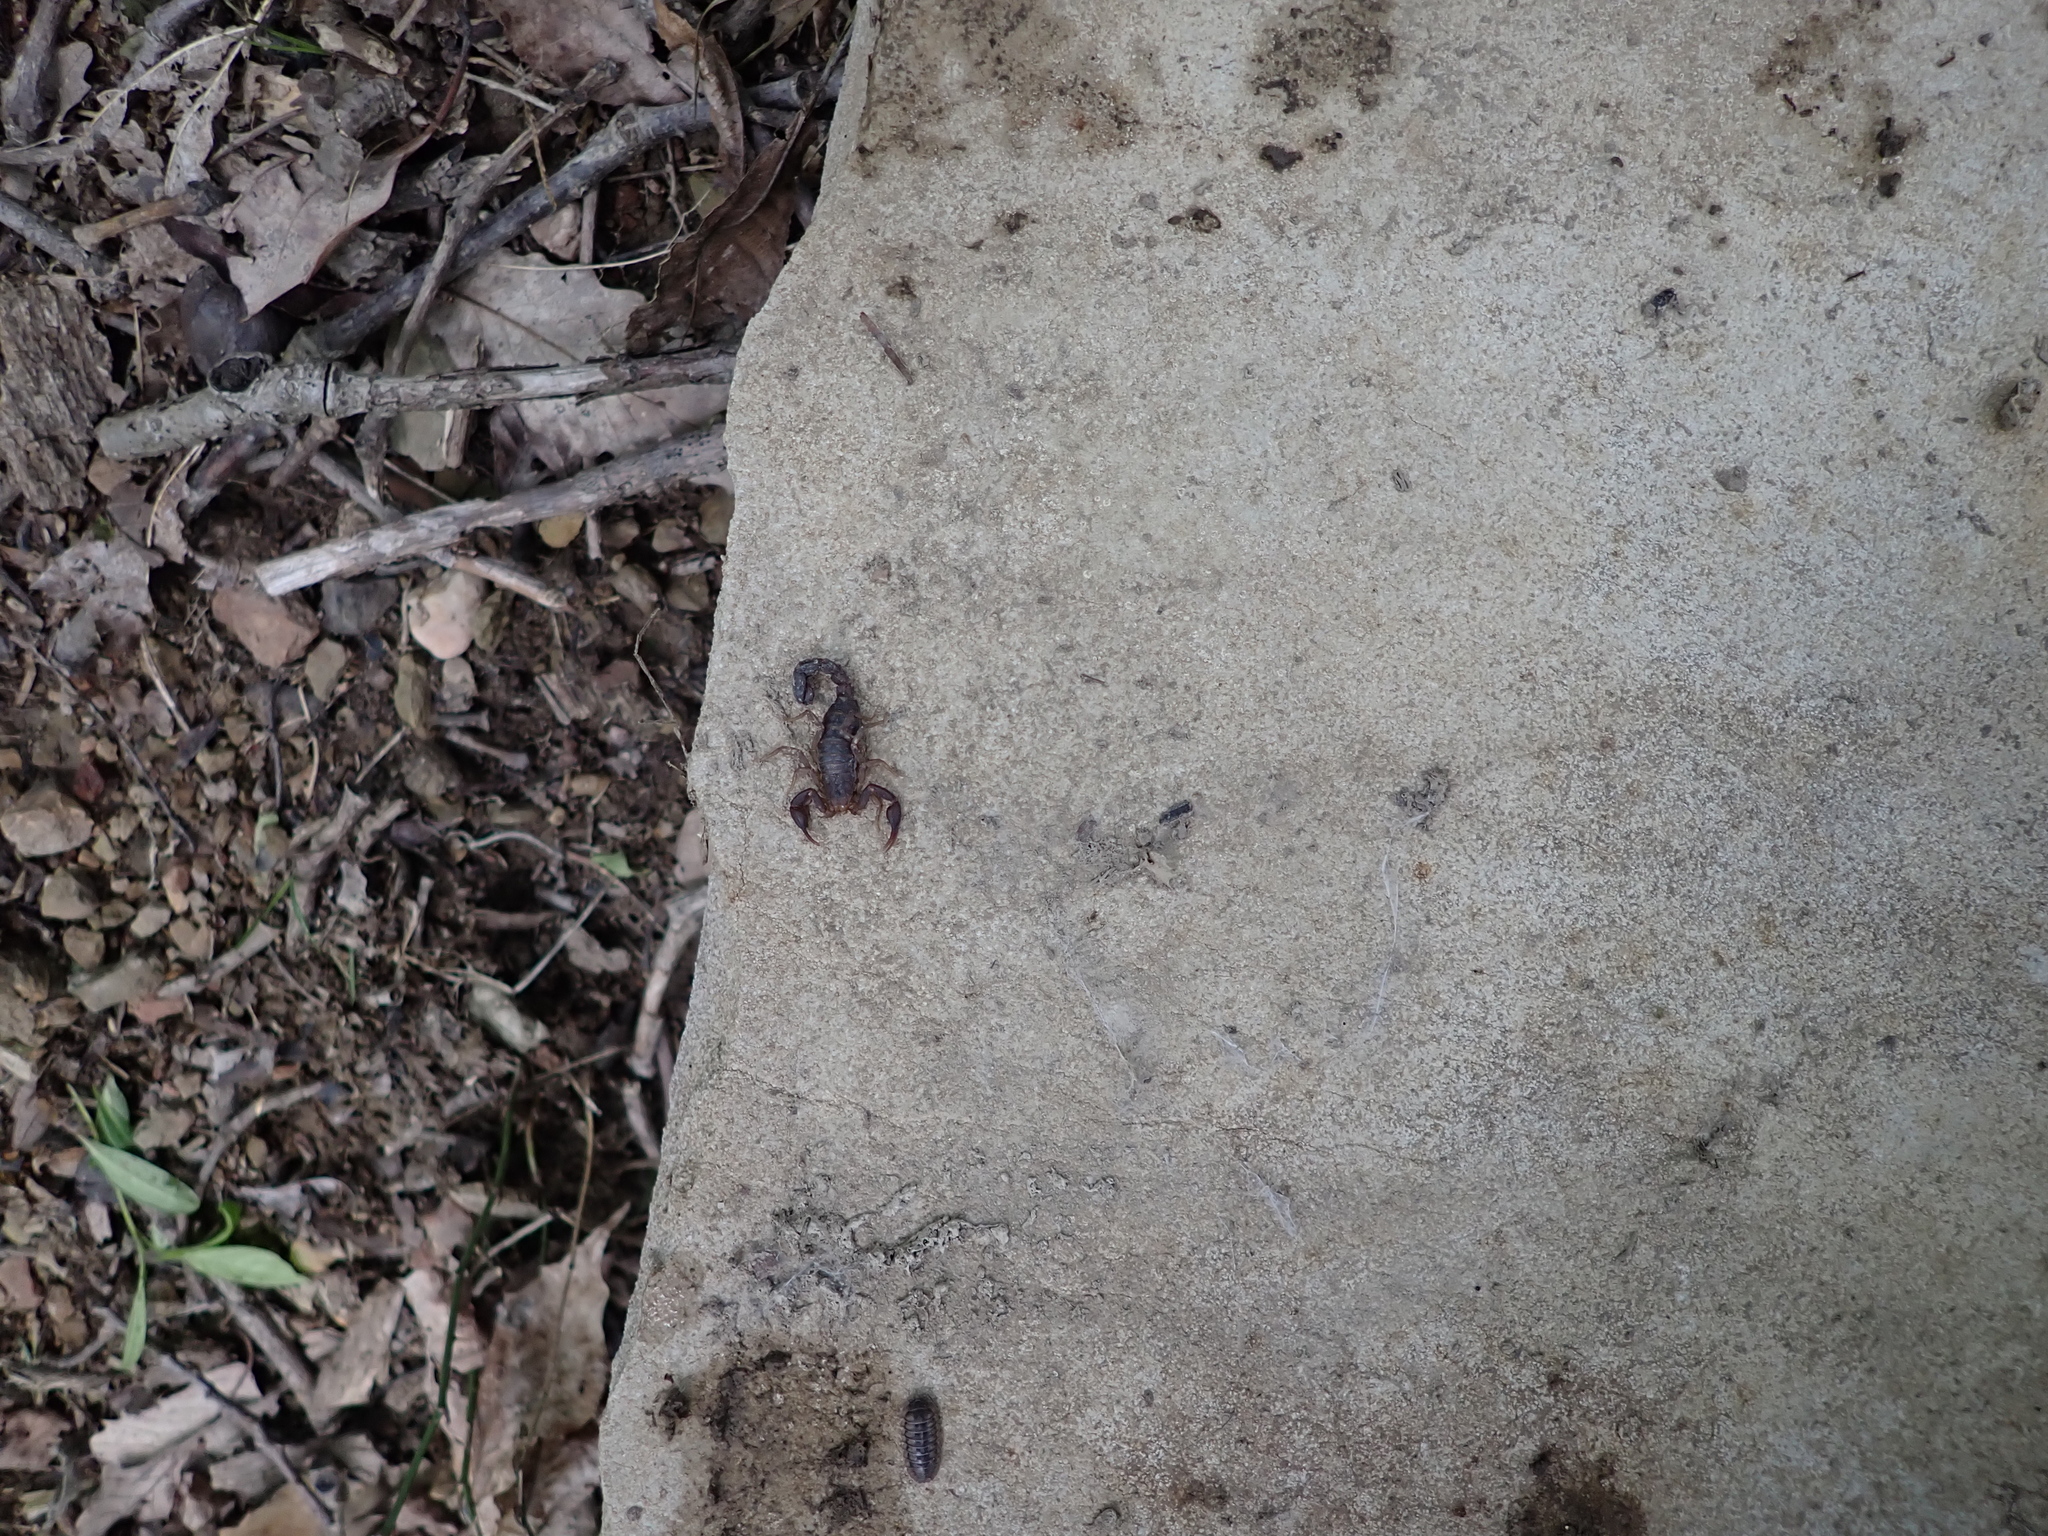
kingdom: Animalia
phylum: Arthropoda
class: Arachnida
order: Scorpiones
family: Vaejovidae
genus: Vaejovis
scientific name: Vaejovis carolinianus
